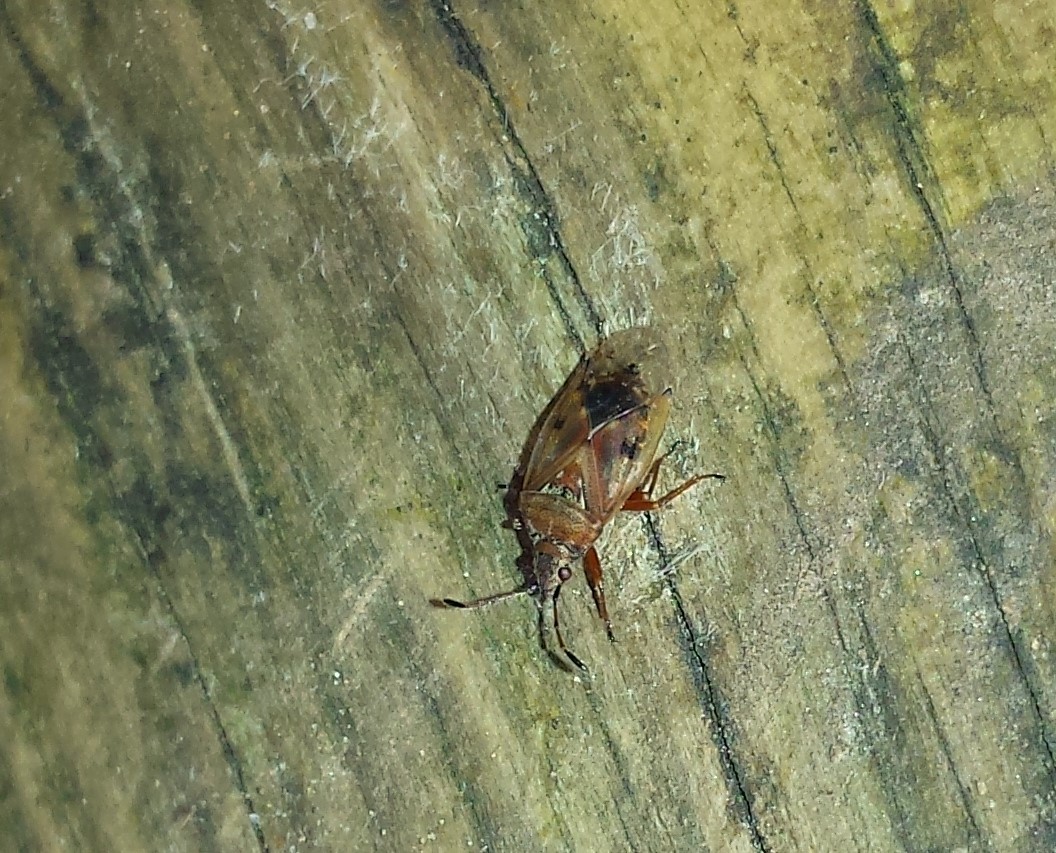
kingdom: Animalia
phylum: Arthropoda
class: Insecta
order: Hemiptera
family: Lygaeidae
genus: Kleidocerys
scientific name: Kleidocerys resedae
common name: Birch catkin bug
